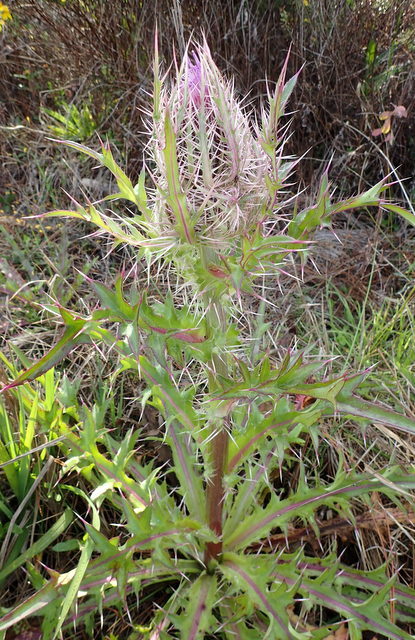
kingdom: Plantae
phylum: Tracheophyta
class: Magnoliopsida
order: Asterales
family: Asteraceae
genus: Cirsium
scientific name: Cirsium horridulum
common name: Bristly thistle
